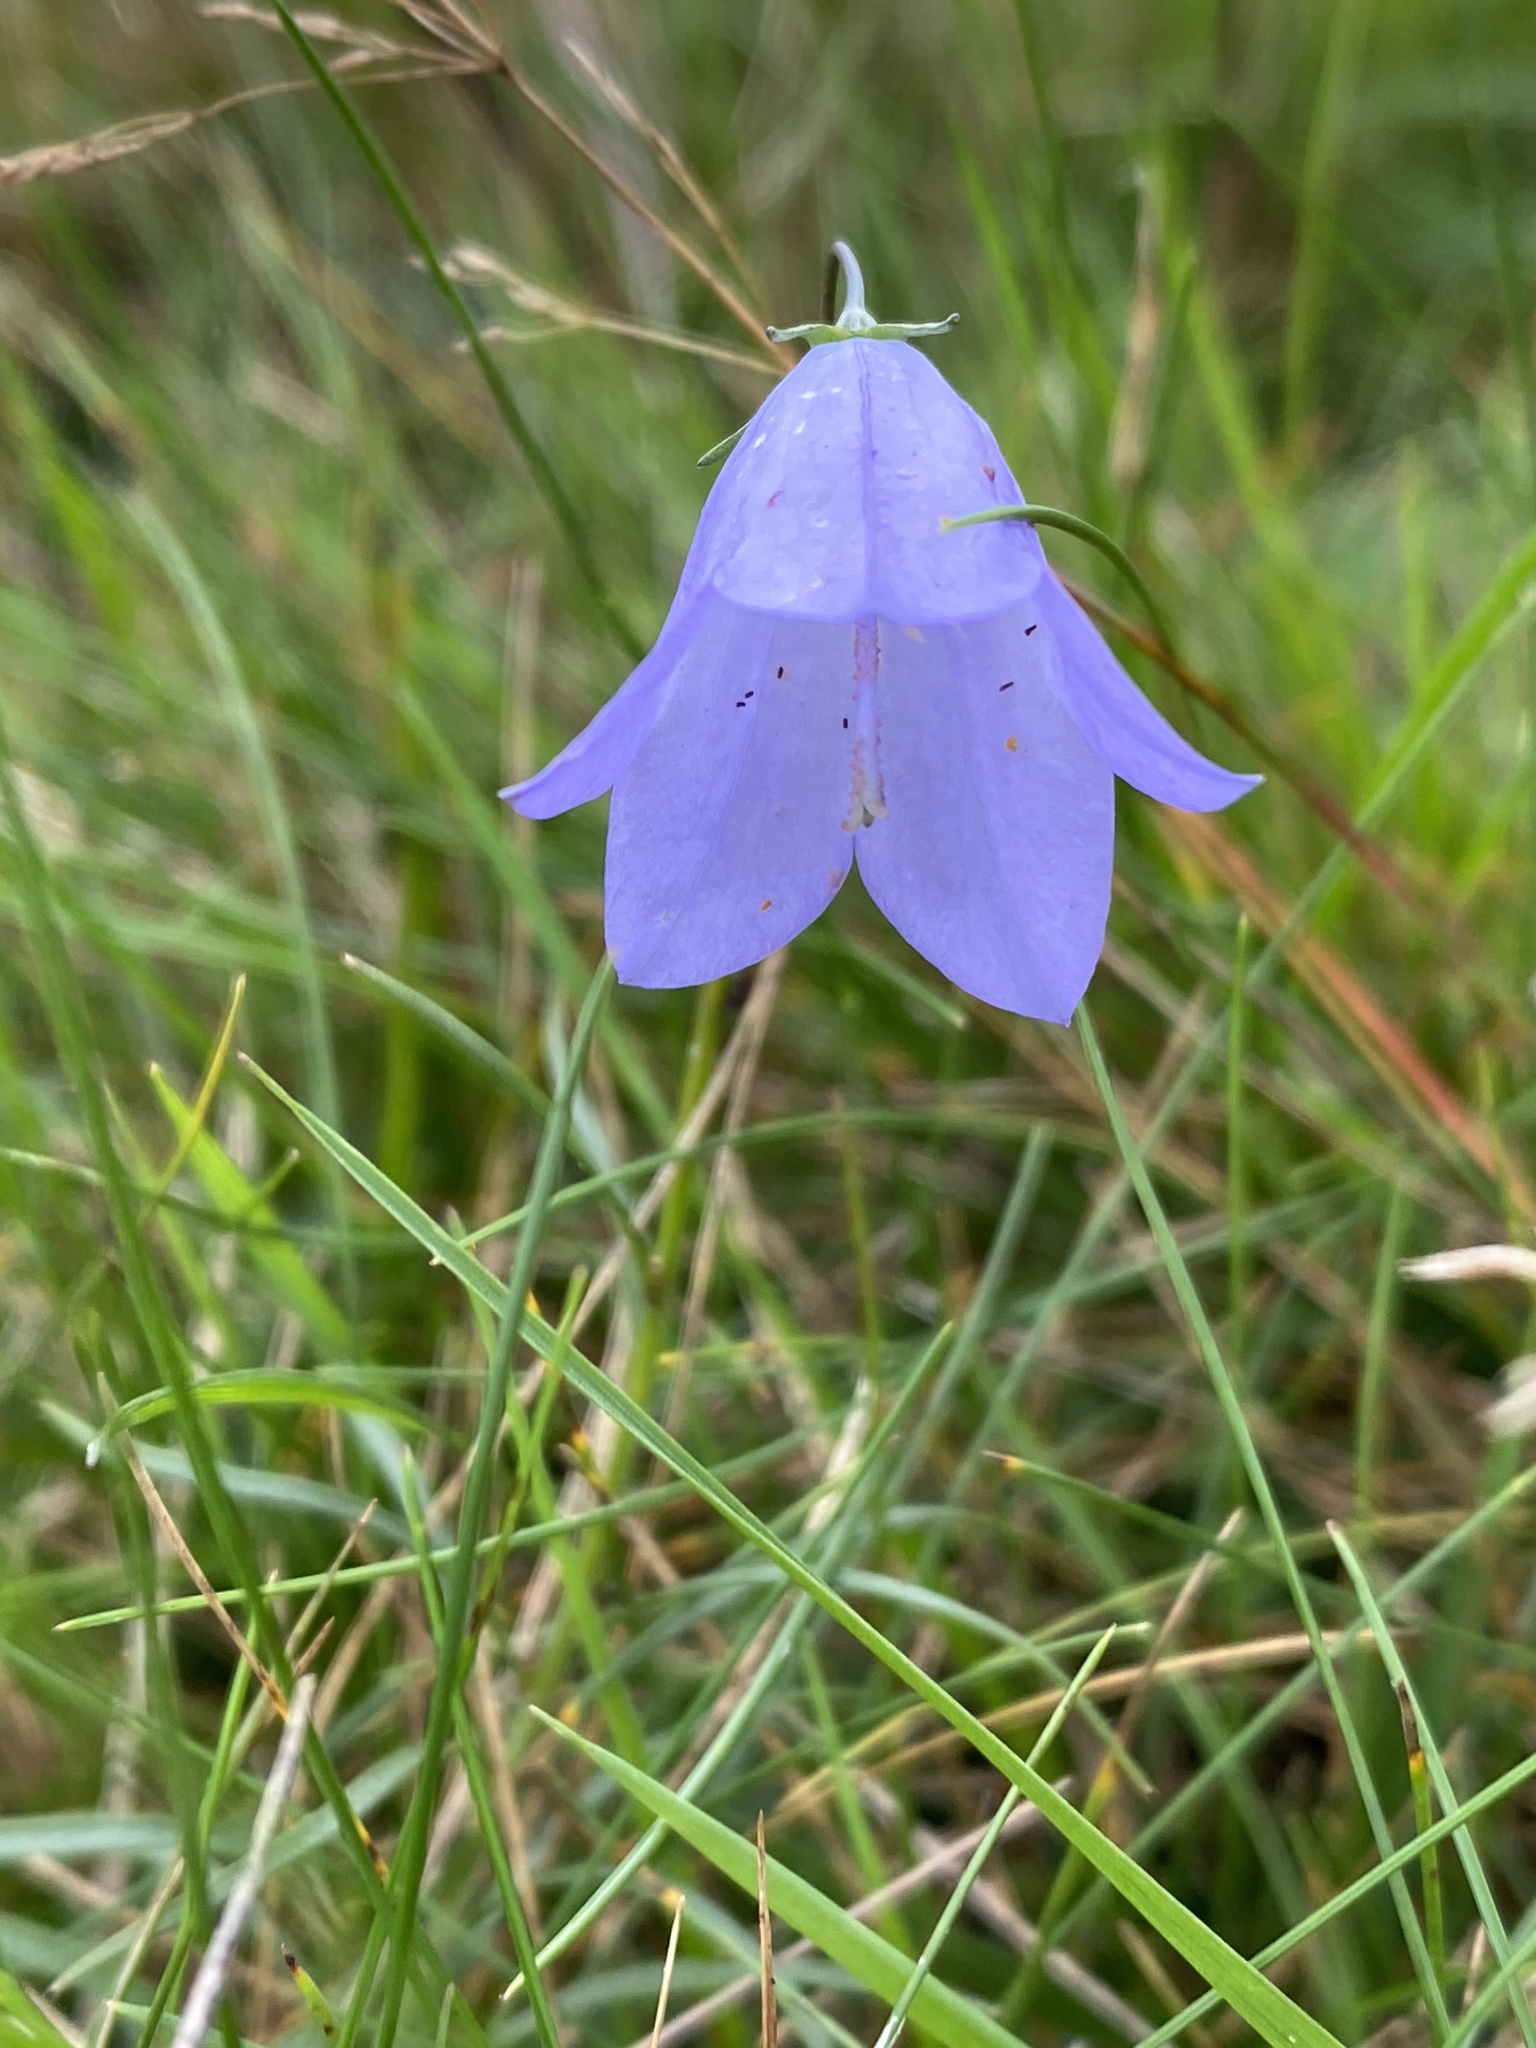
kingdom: Plantae
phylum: Tracheophyta
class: Magnoliopsida
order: Asterales
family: Campanulaceae
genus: Campanula
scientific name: Campanula rotundifolia
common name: Harebell
